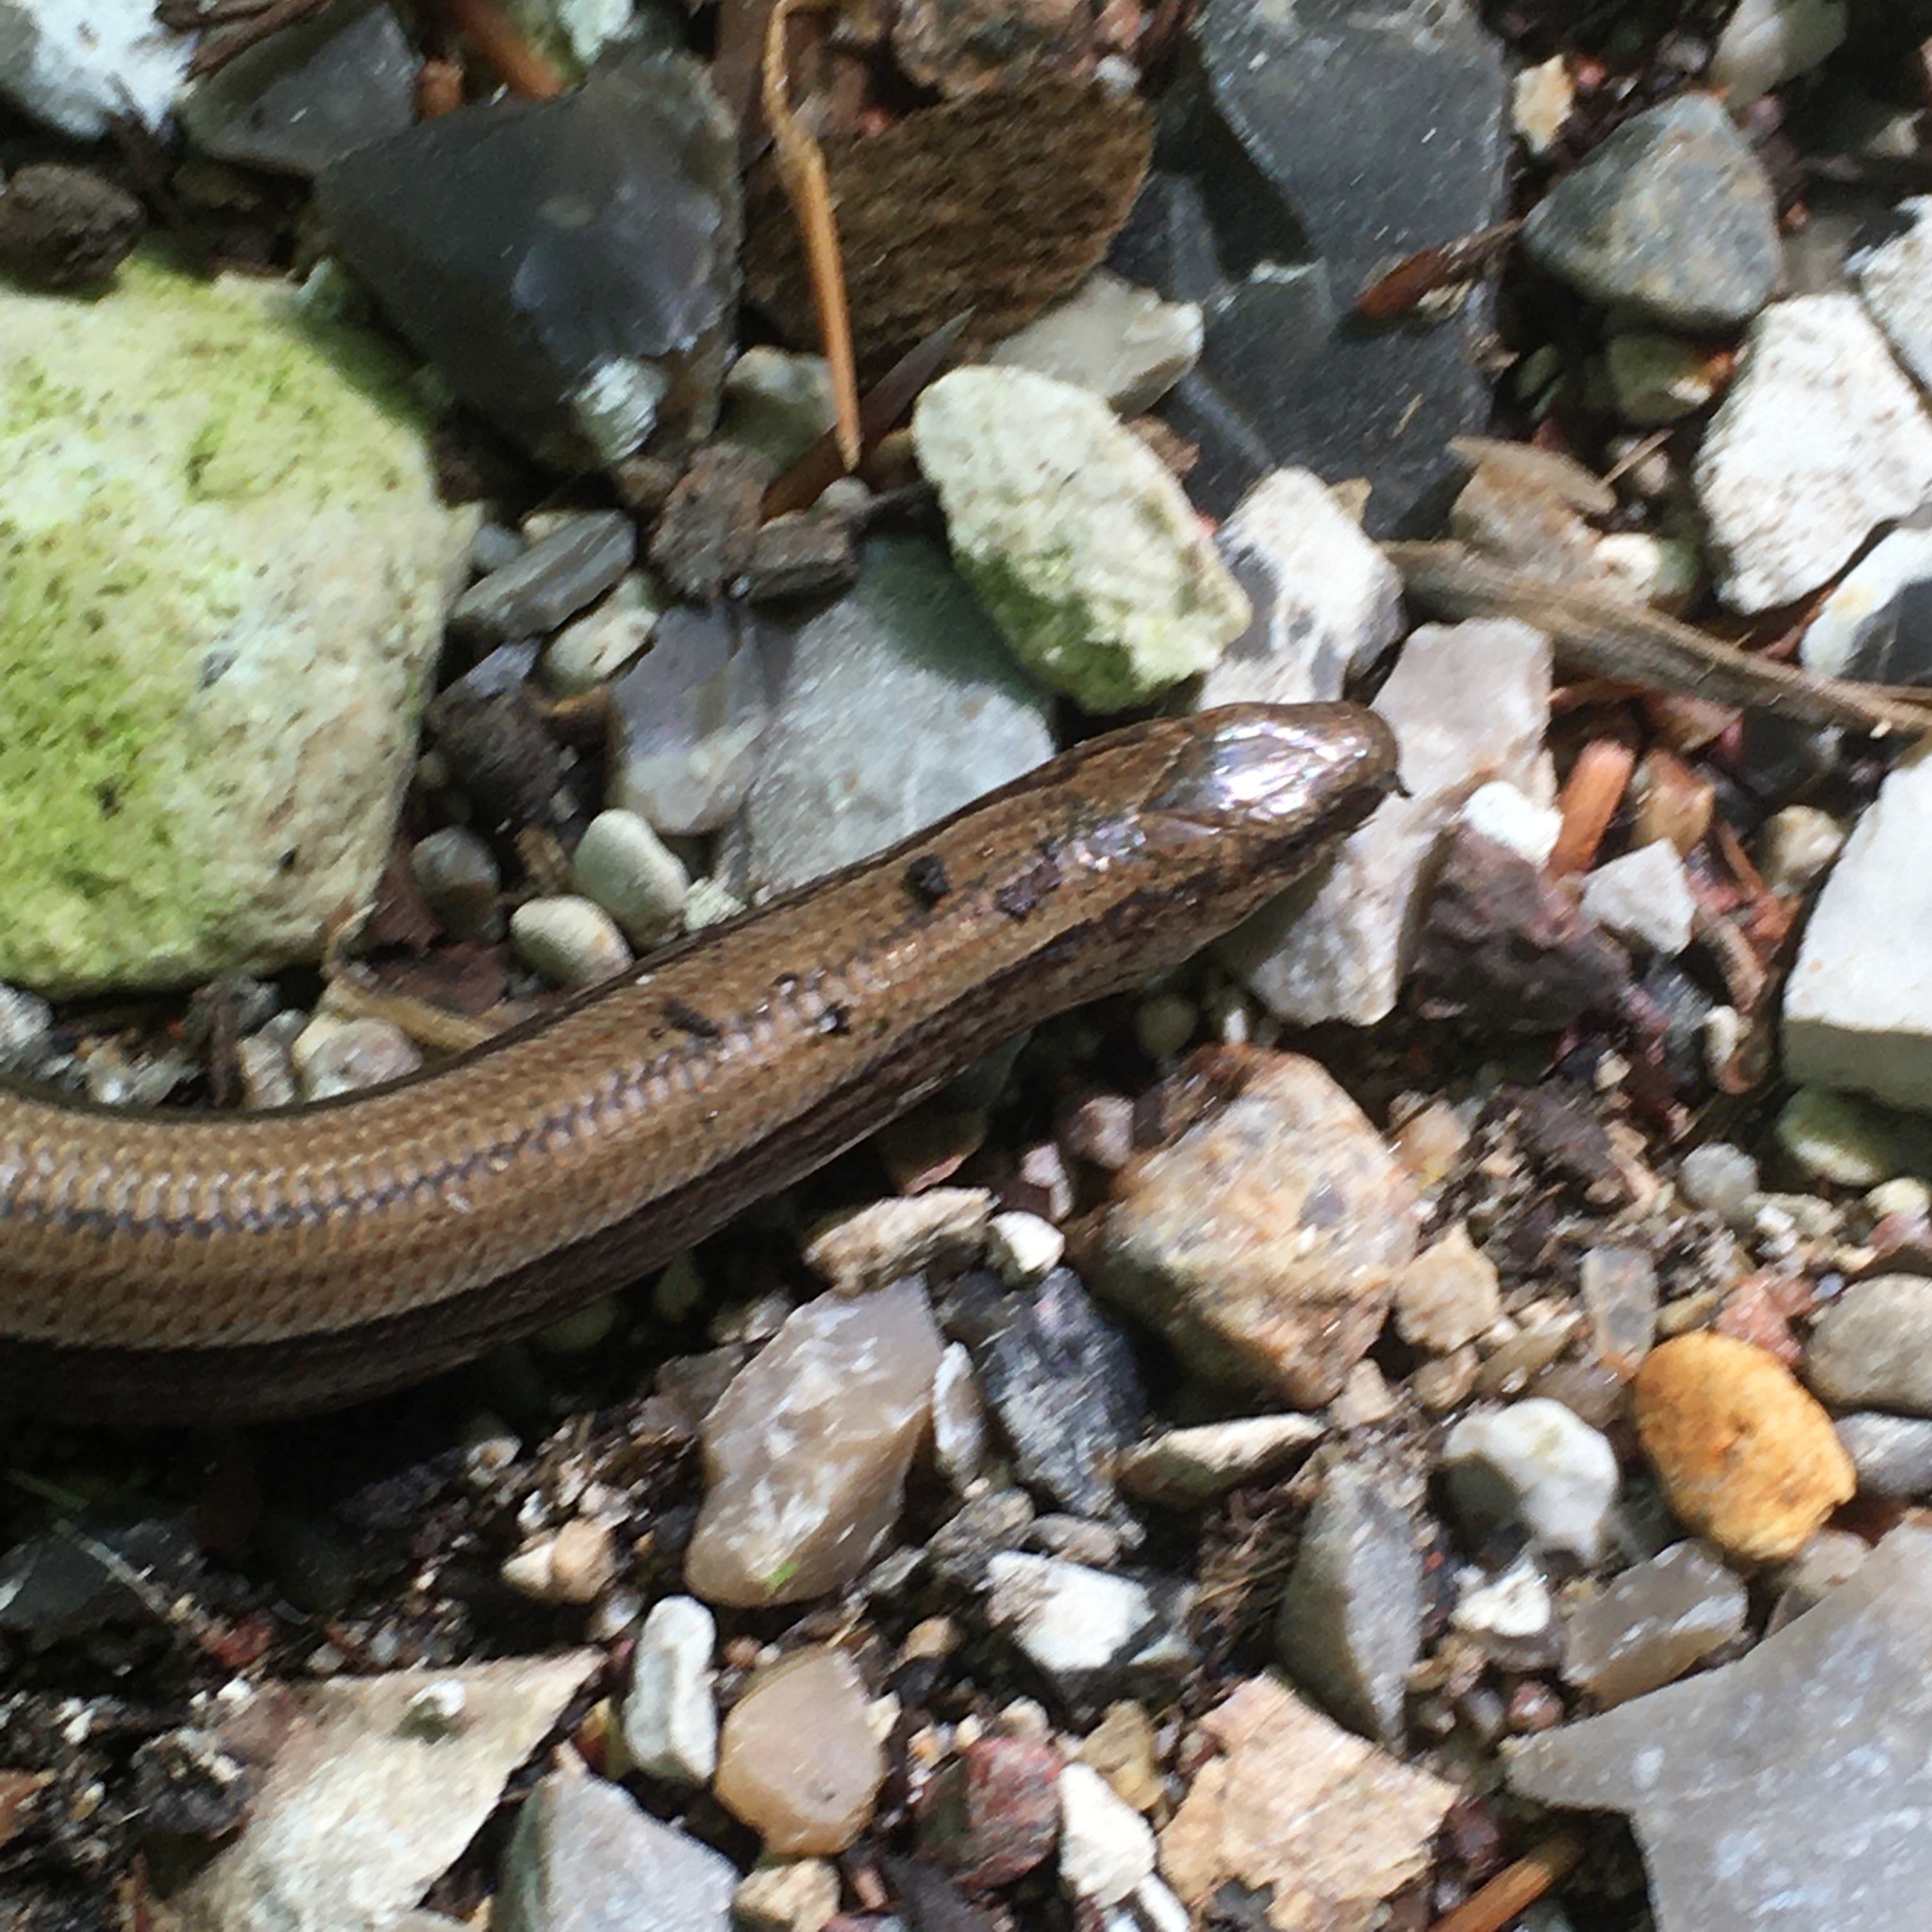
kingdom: Animalia
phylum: Chordata
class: Squamata
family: Anguidae
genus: Anguis
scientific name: Anguis fragilis
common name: Slow worm
